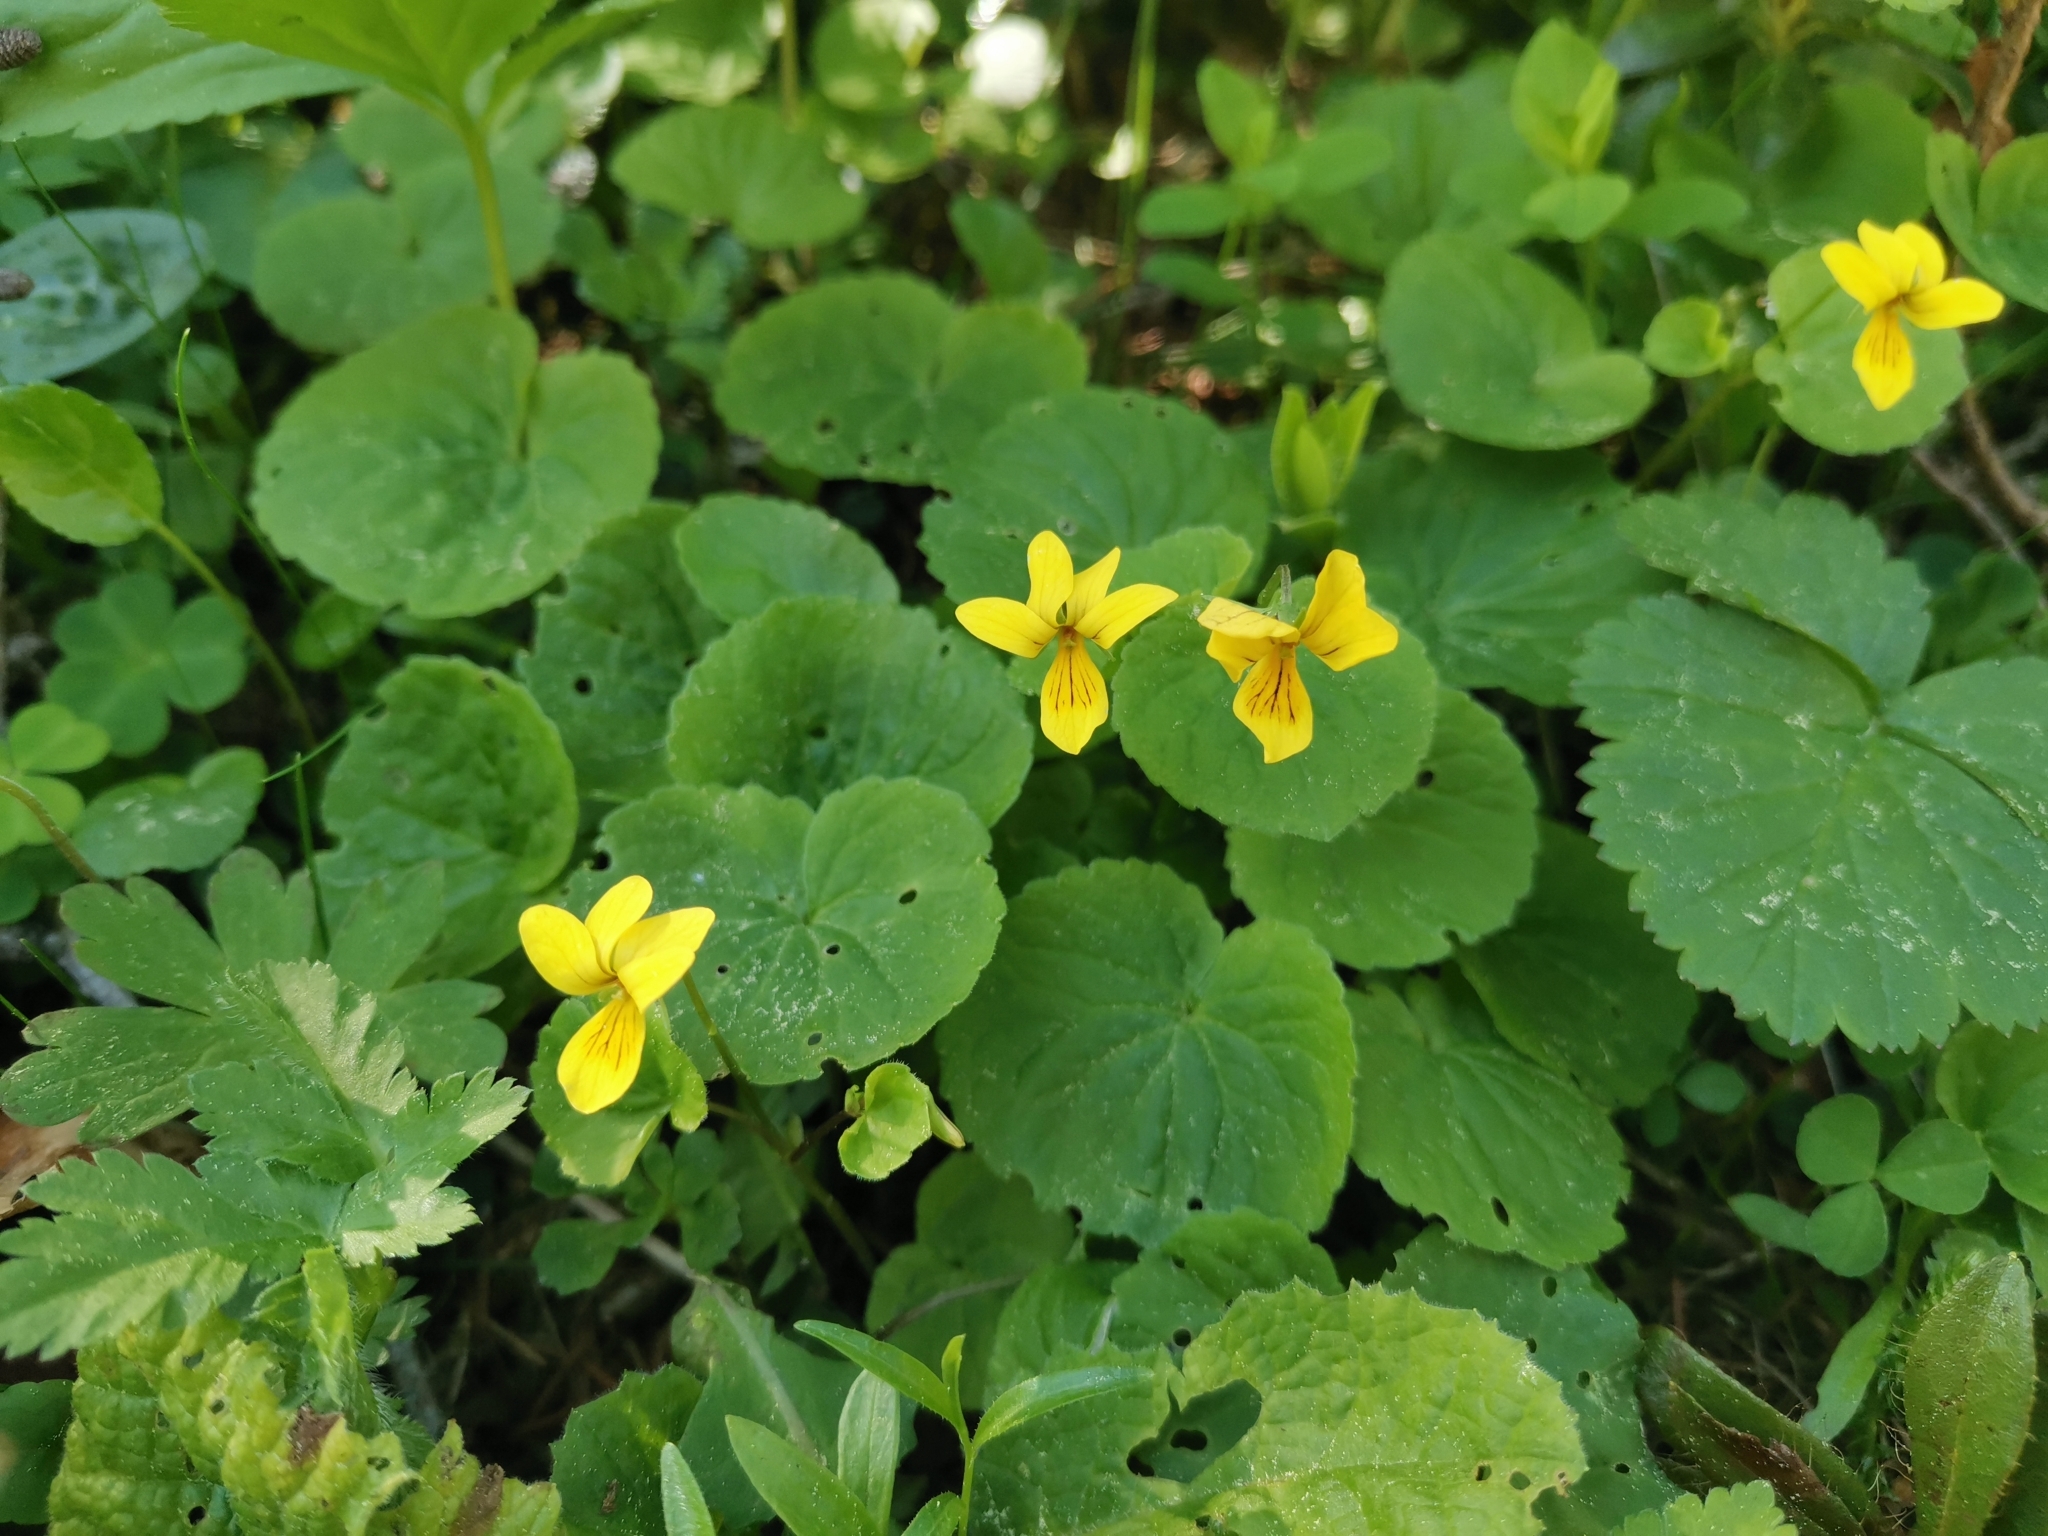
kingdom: Plantae
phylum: Tracheophyta
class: Magnoliopsida
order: Malpighiales
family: Violaceae
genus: Viola
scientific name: Viola biflora
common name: Alpine yellow violet
